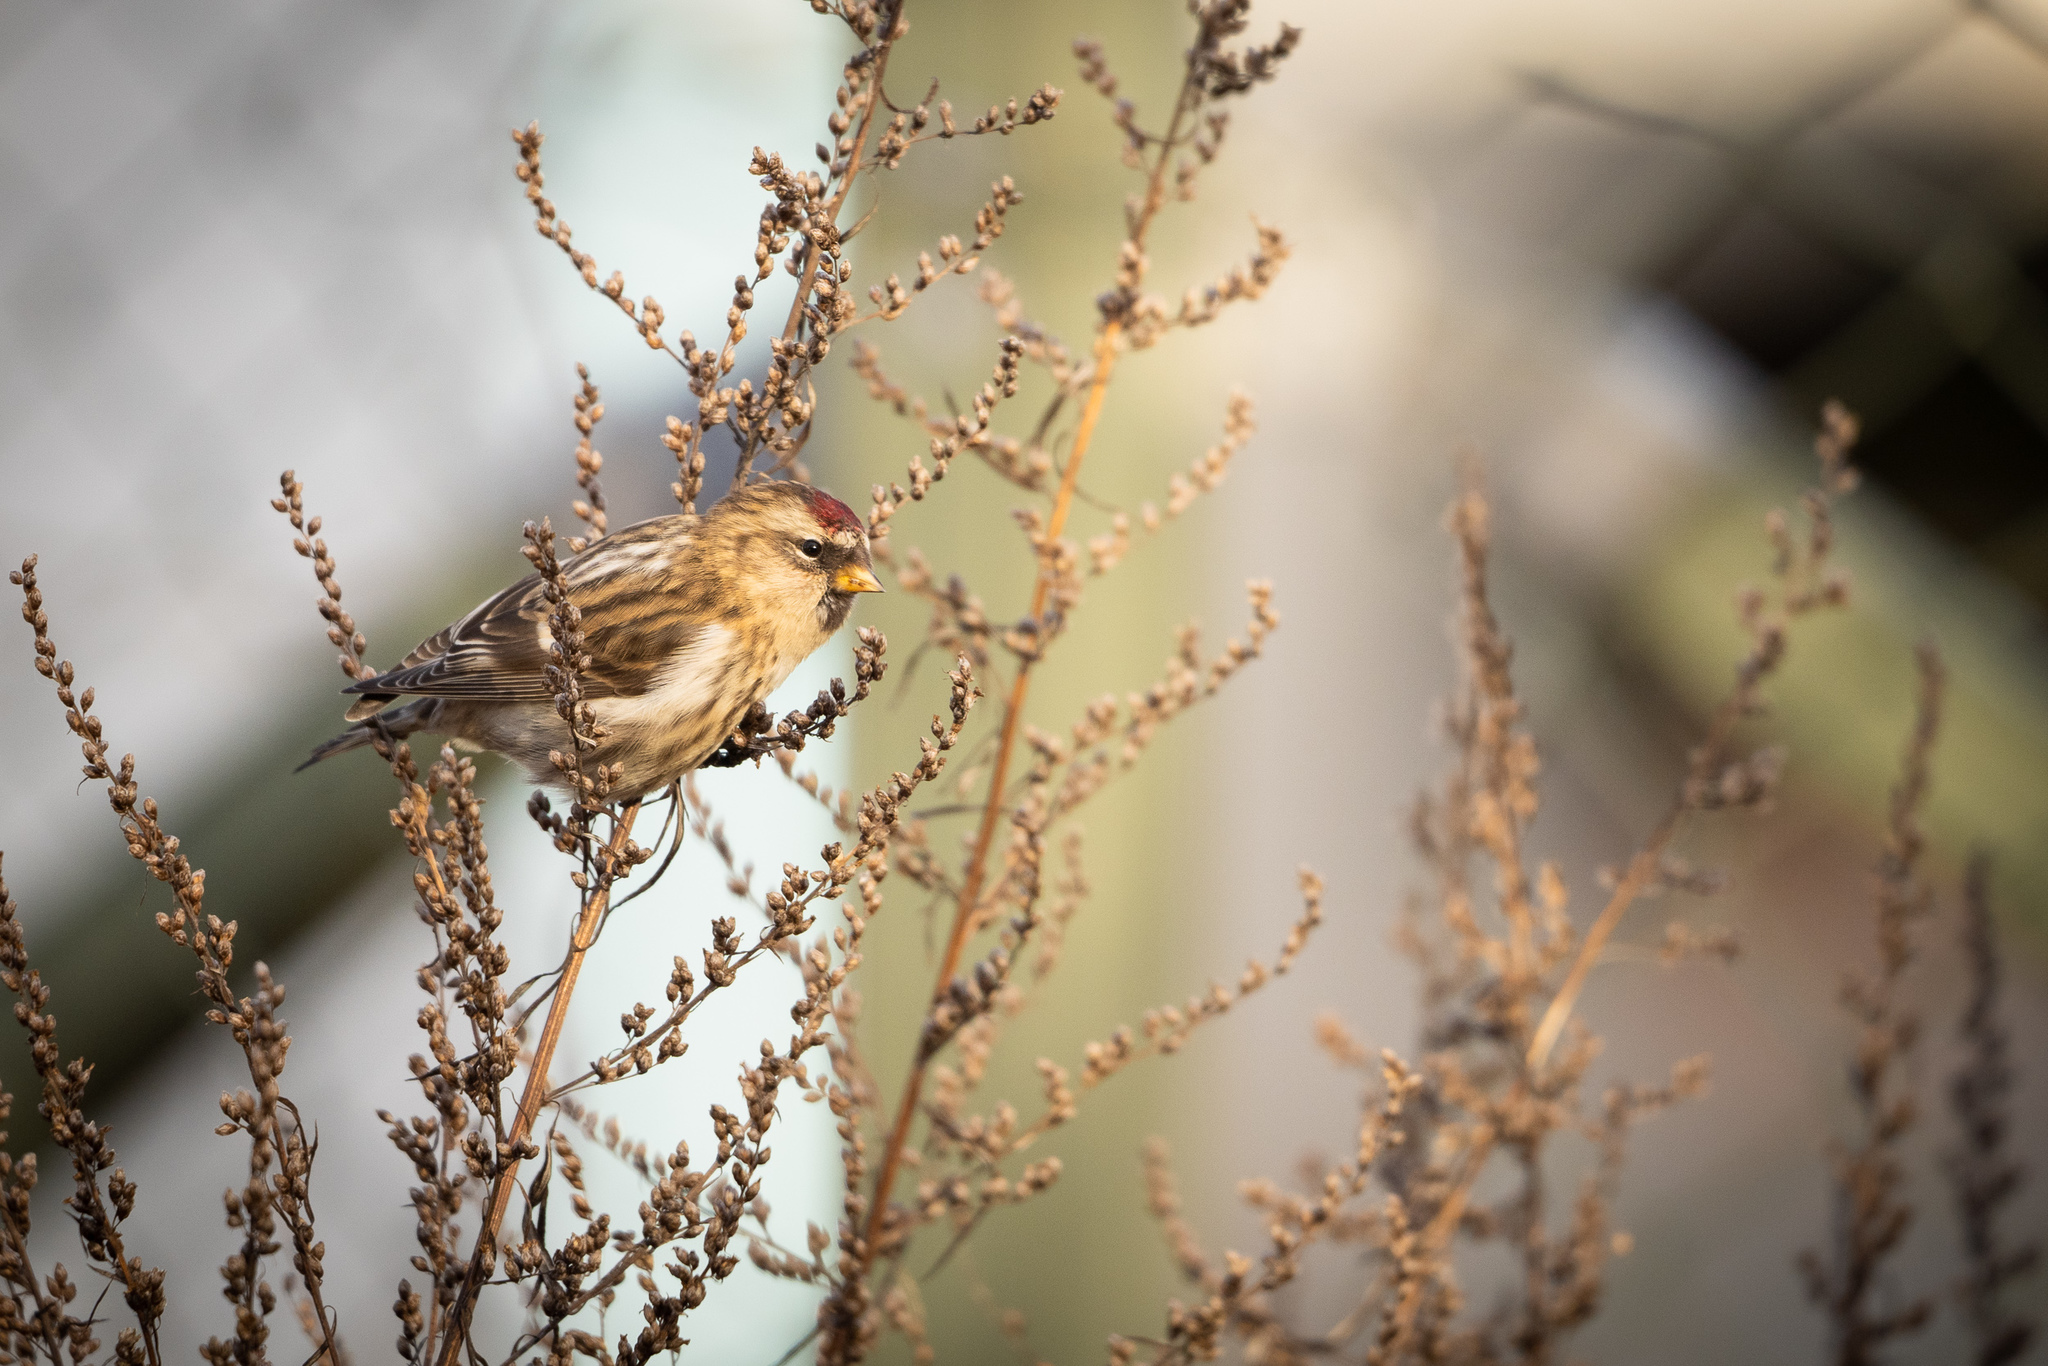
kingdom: Animalia
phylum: Chordata
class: Aves
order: Passeriformes
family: Fringillidae
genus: Acanthis
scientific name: Acanthis flammea
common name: Common redpoll
